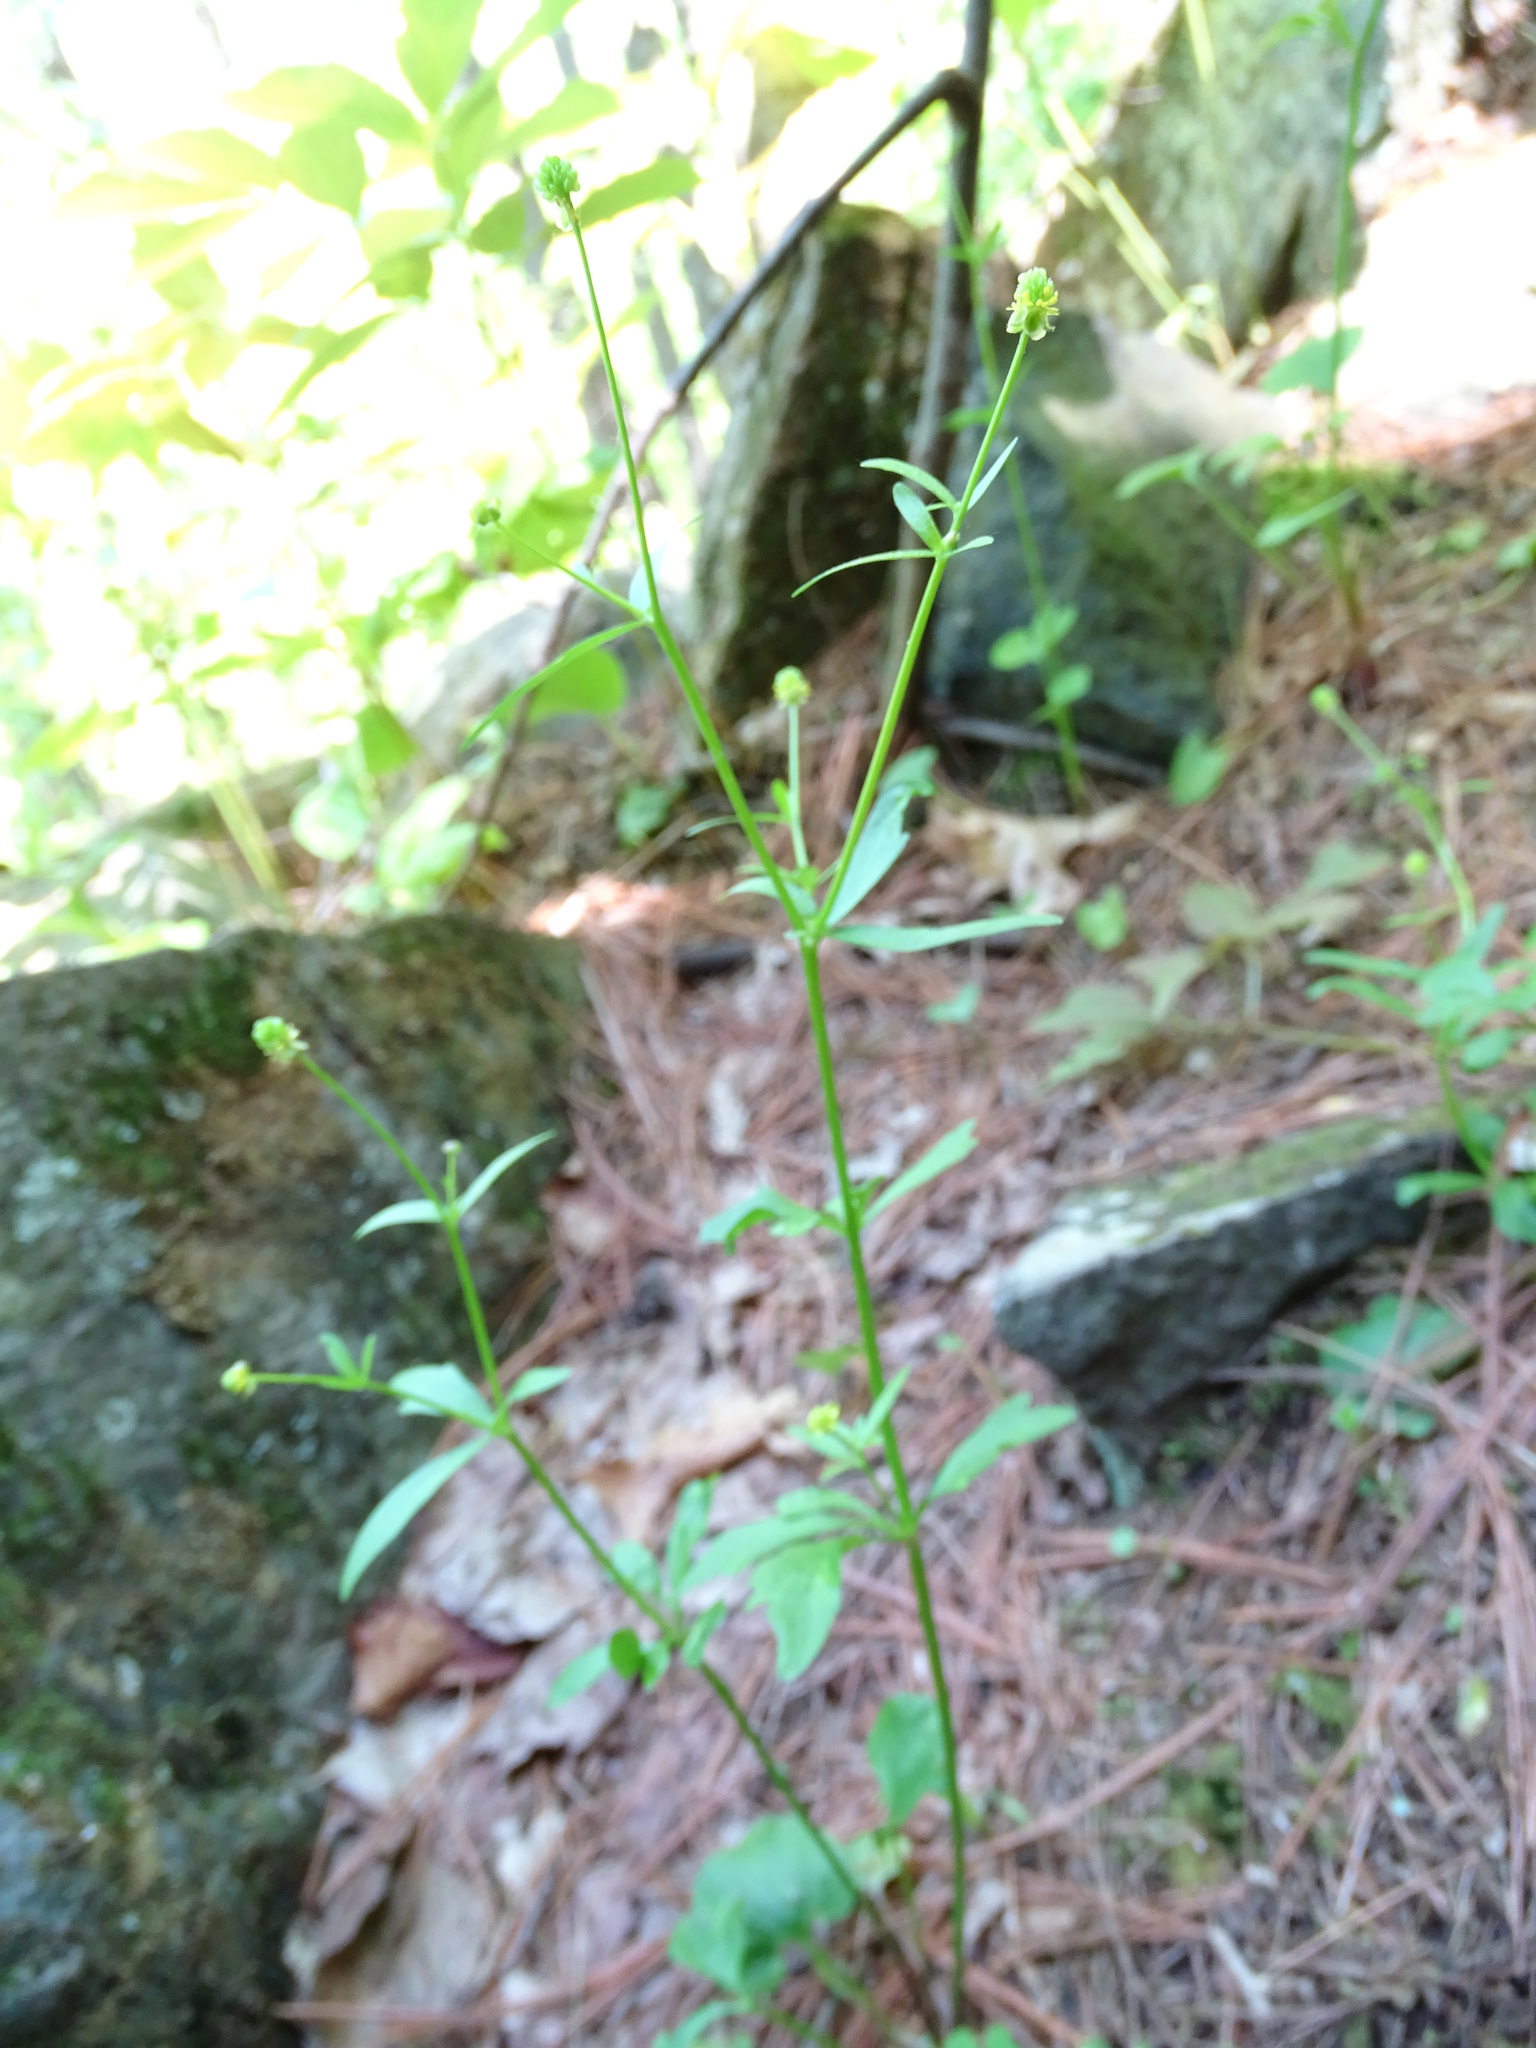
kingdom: Plantae
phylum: Tracheophyta
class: Magnoliopsida
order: Ranunculales
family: Ranunculaceae
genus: Ranunculus
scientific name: Ranunculus abortivus
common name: Early wood buttercup
